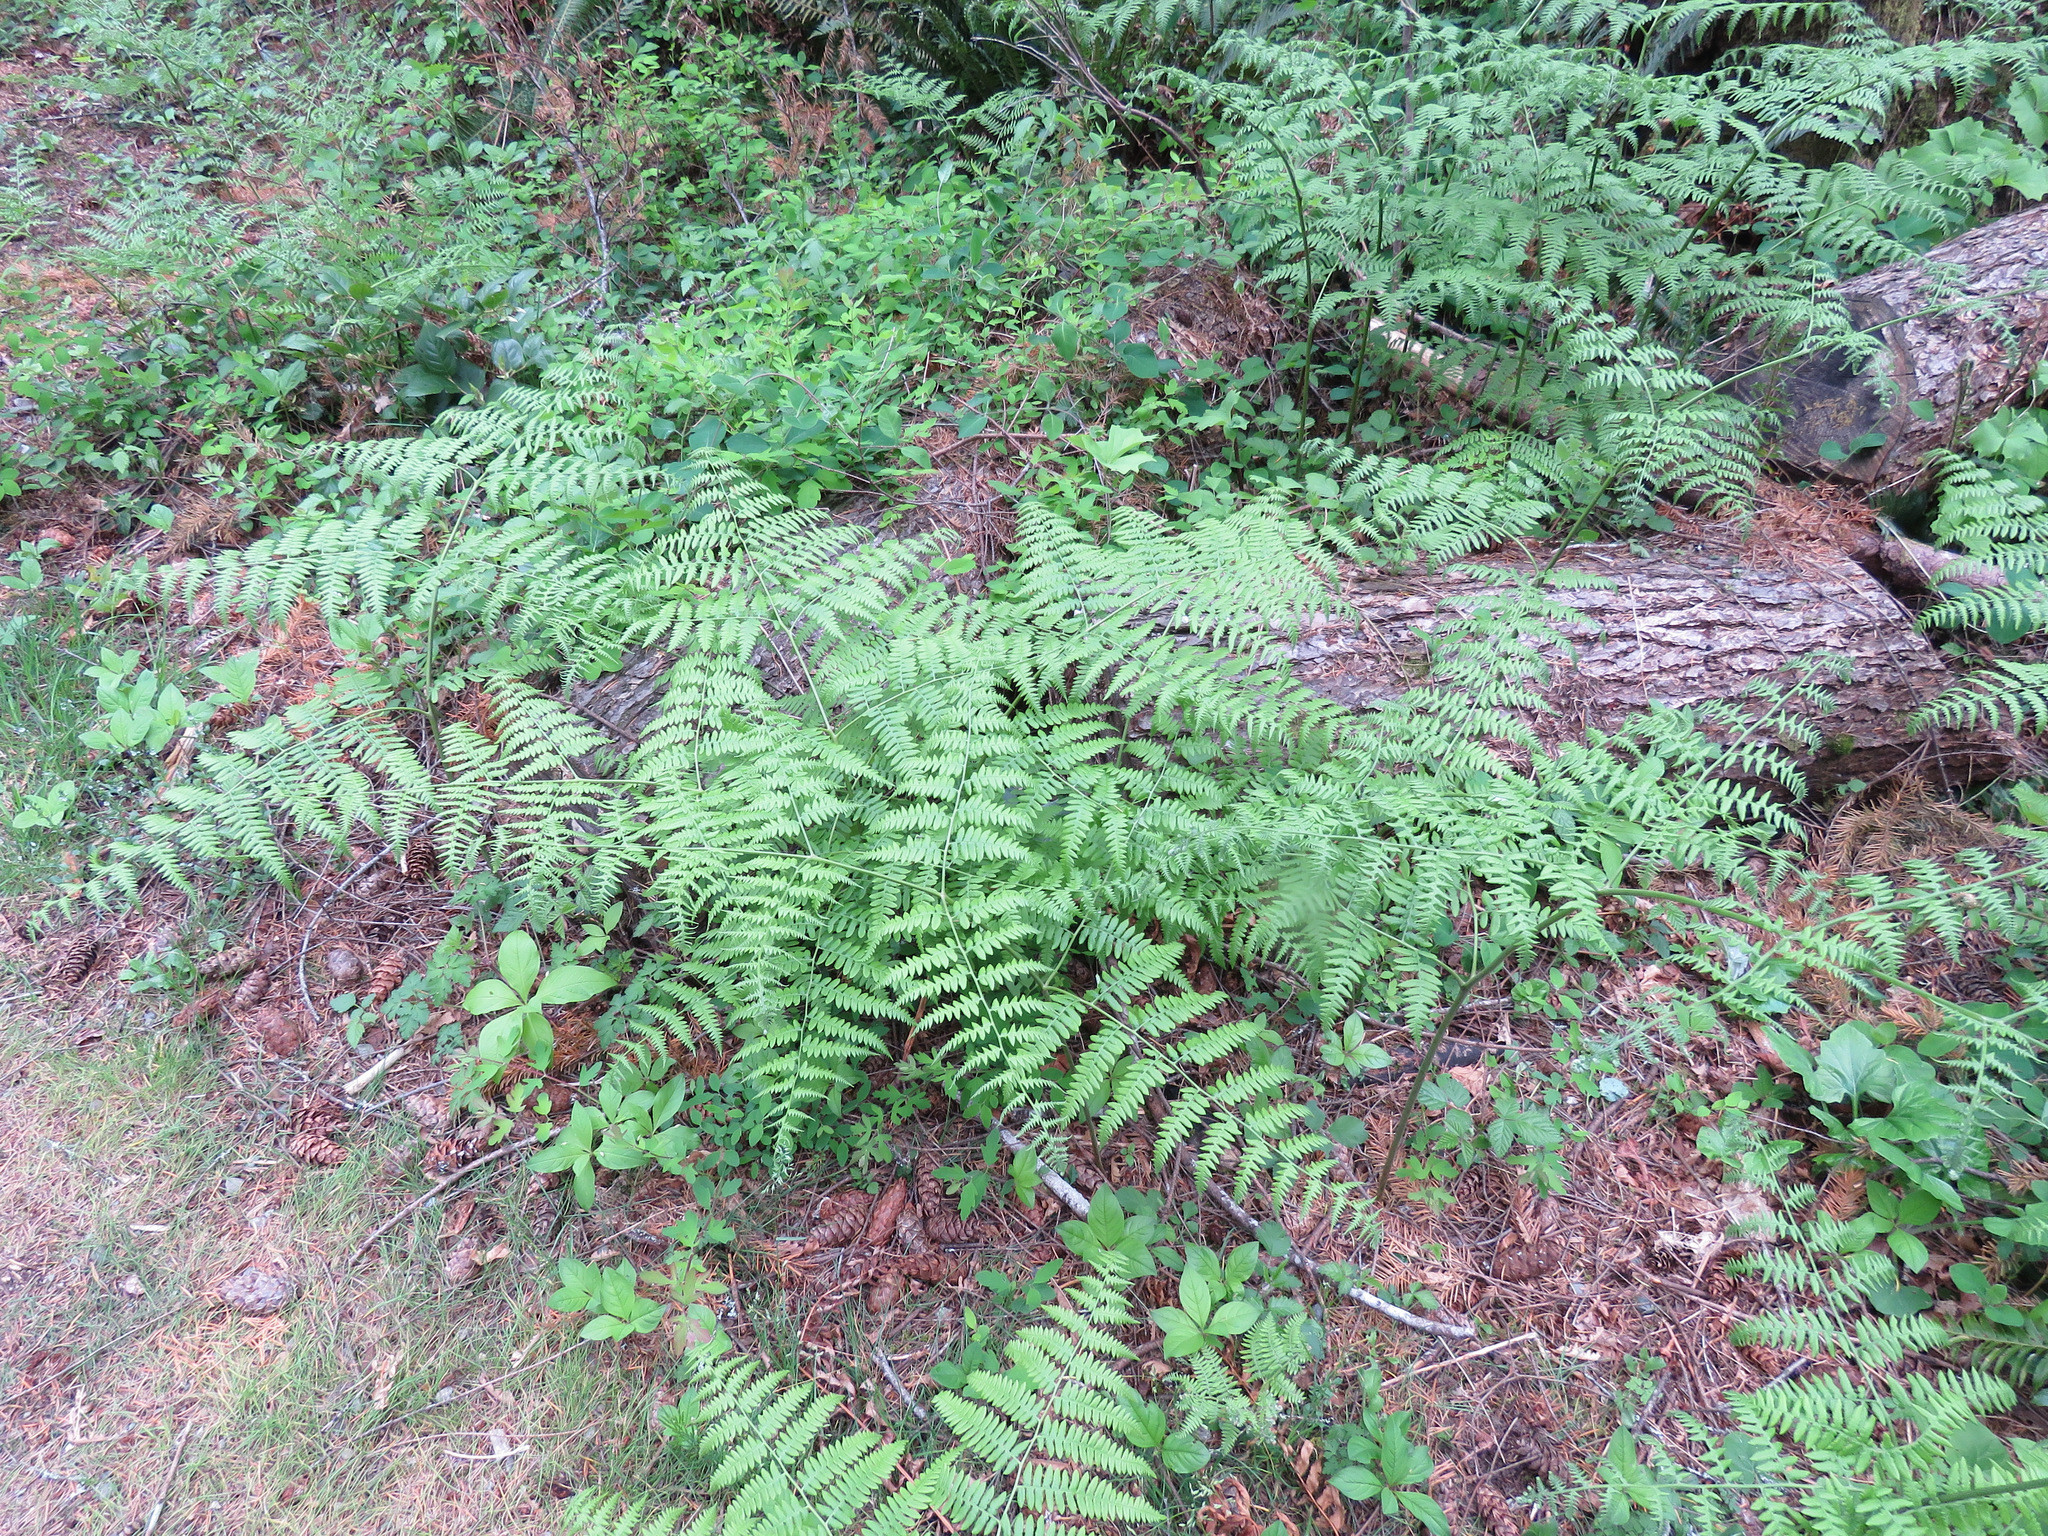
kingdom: Plantae
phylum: Tracheophyta
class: Polypodiopsida
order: Polypodiales
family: Dennstaedtiaceae
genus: Pteridium
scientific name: Pteridium aquilinum
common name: Bracken
